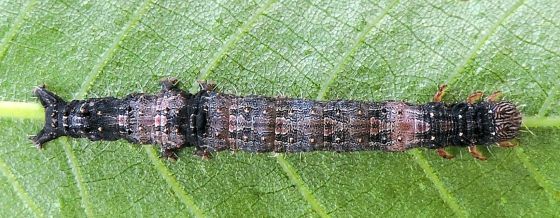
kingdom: Animalia
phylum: Arthropoda
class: Insecta
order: Lepidoptera
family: Erebidae
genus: Catocala
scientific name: Catocala palaeogama
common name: Oldwife underwing
